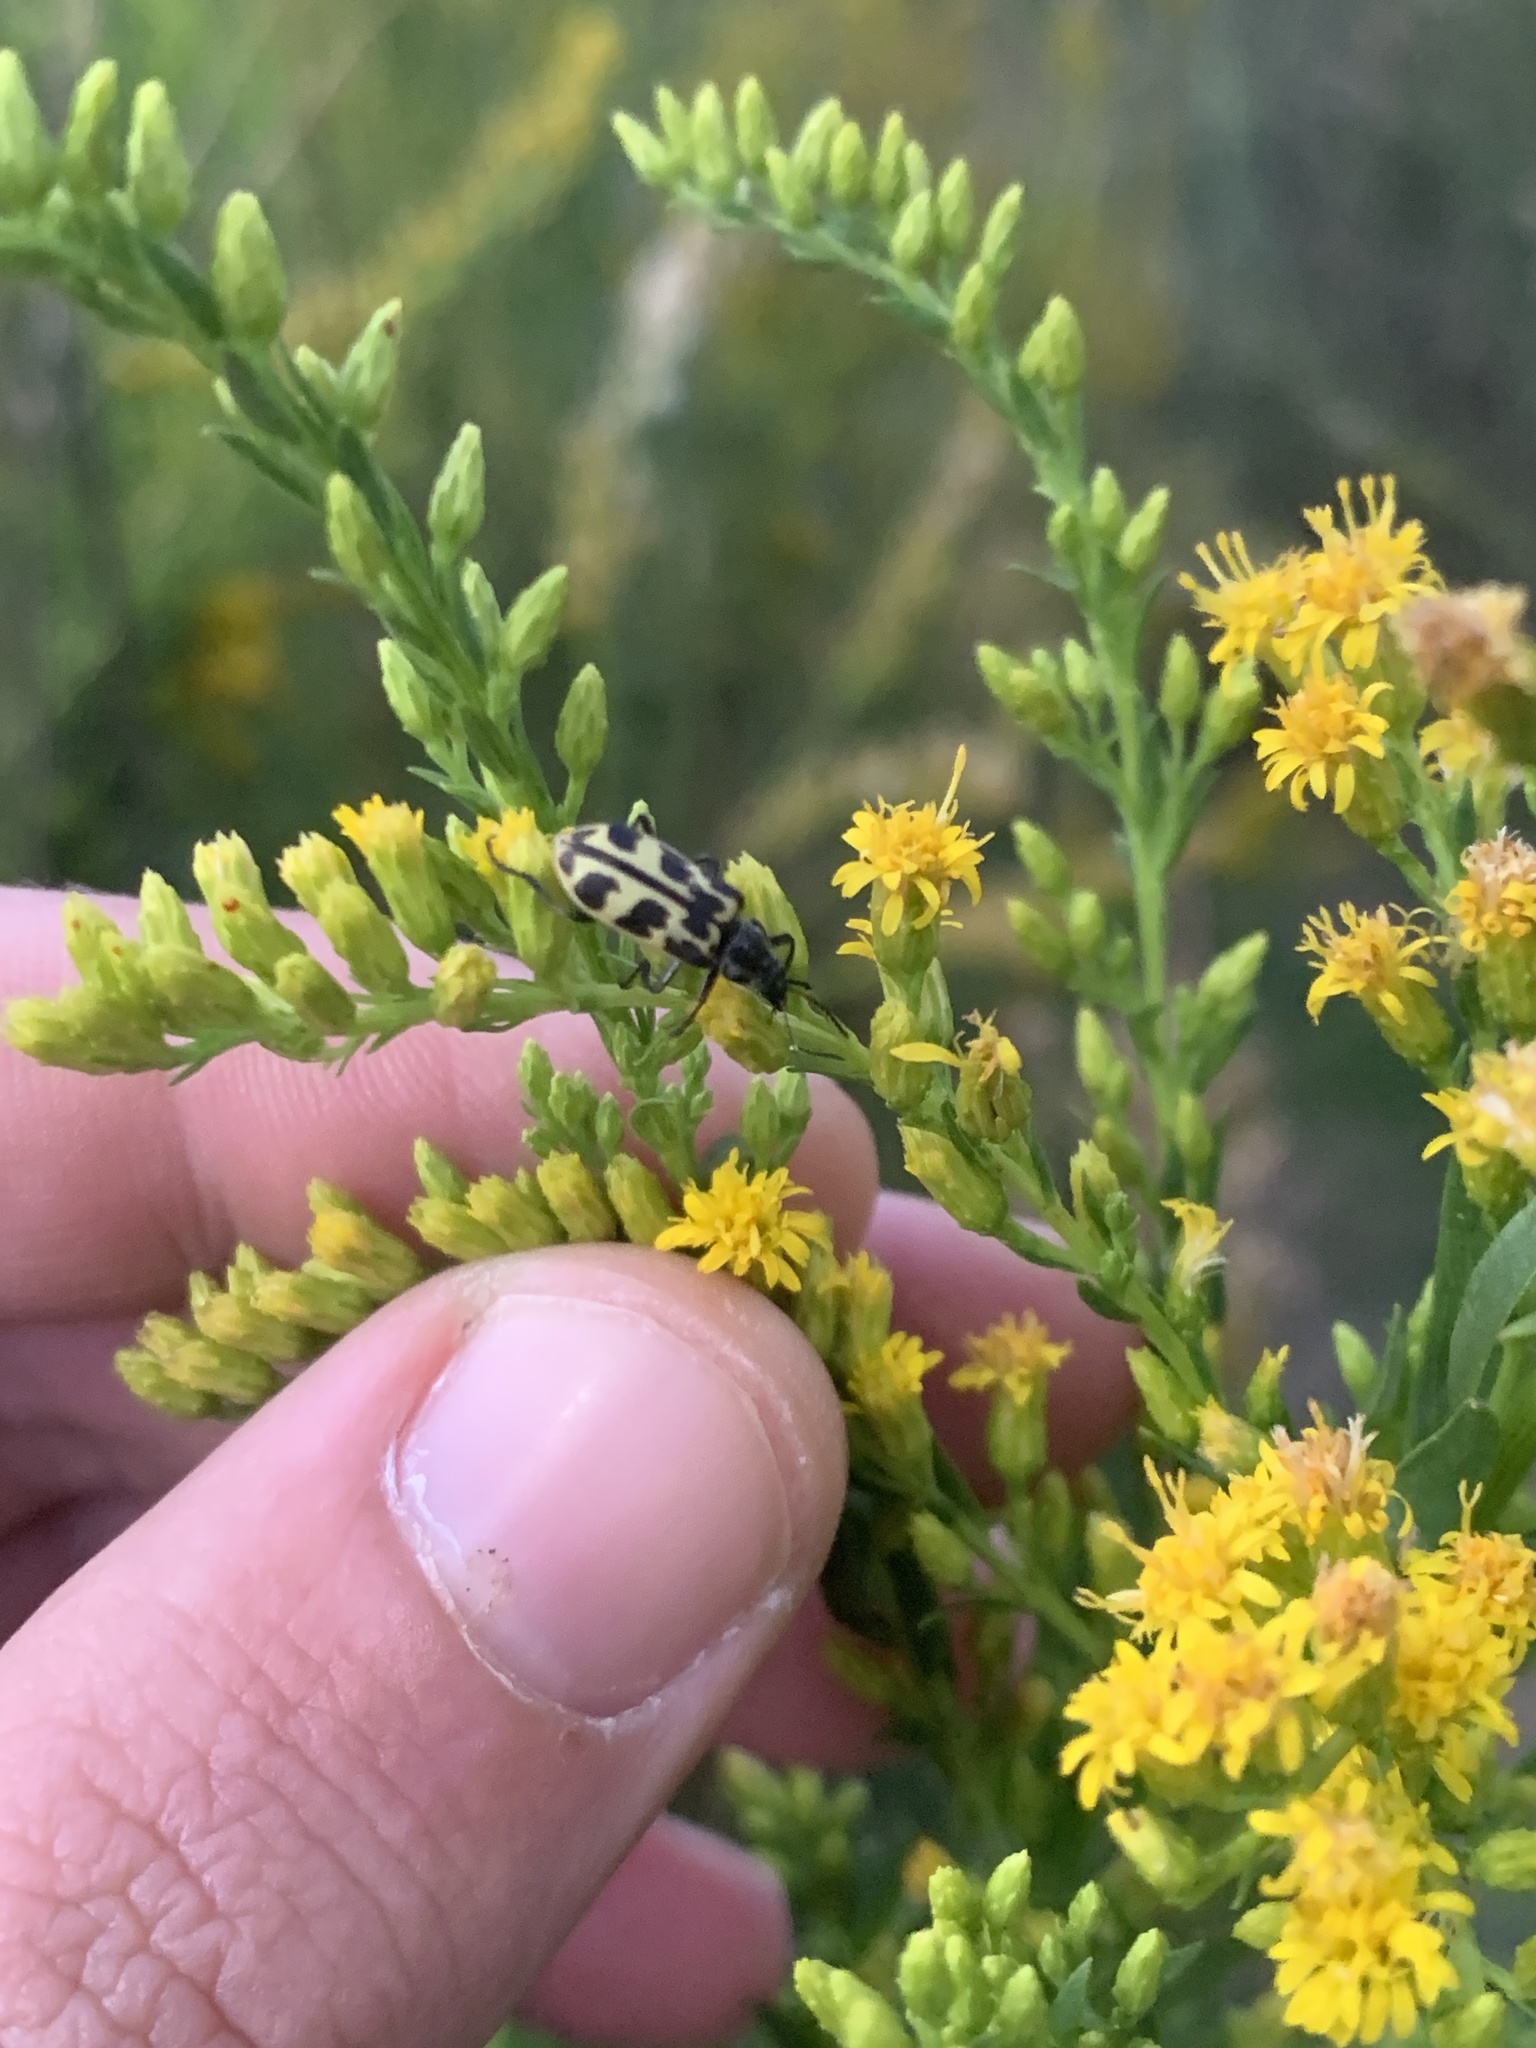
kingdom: Animalia
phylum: Arthropoda
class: Insecta
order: Coleoptera
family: Melyridae
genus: Astylus
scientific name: Astylus atromaculatus
